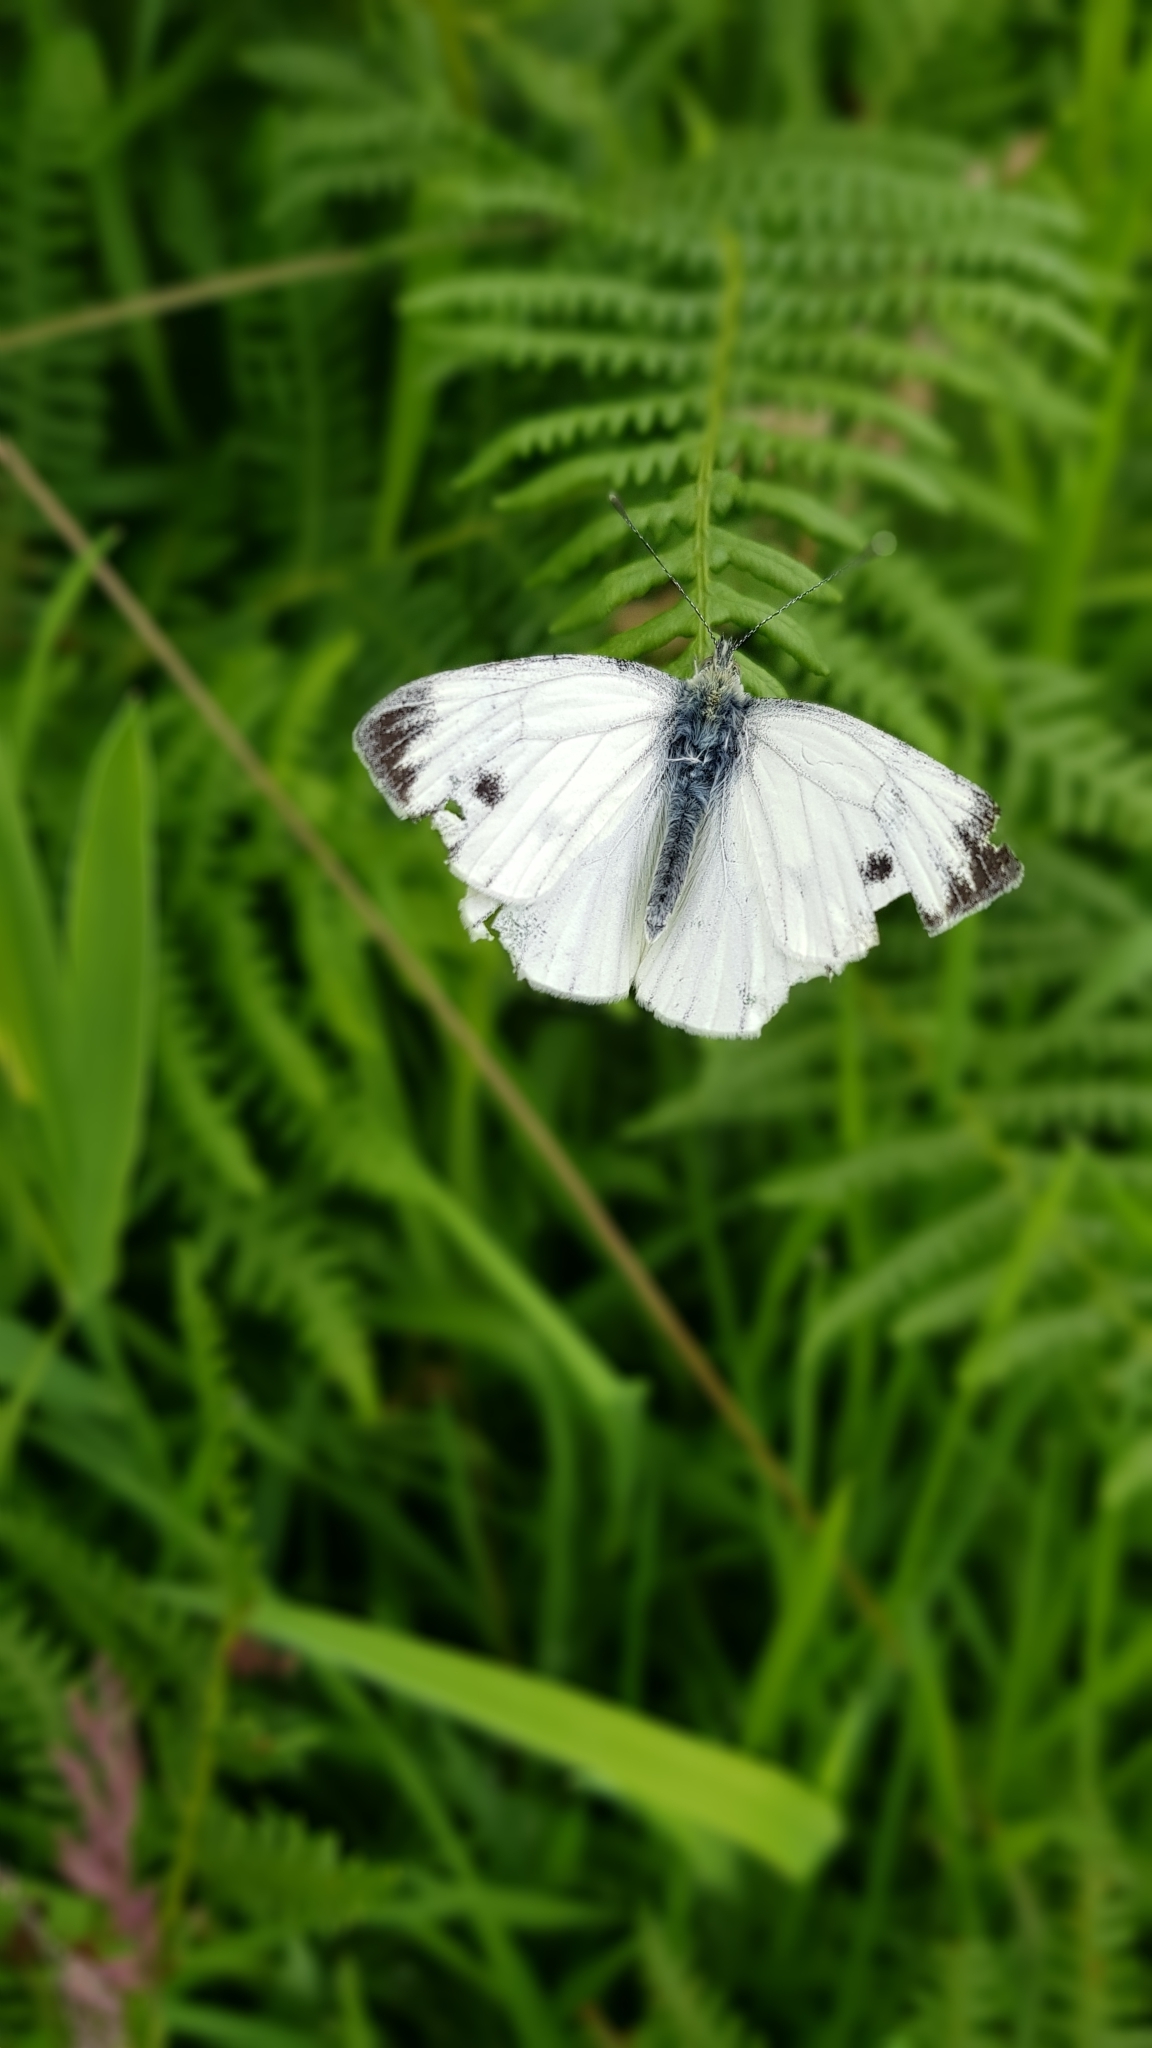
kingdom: Animalia
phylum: Arthropoda
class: Insecta
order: Lepidoptera
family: Pieridae
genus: Pieris
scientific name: Pieris napi
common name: Green-veined white
